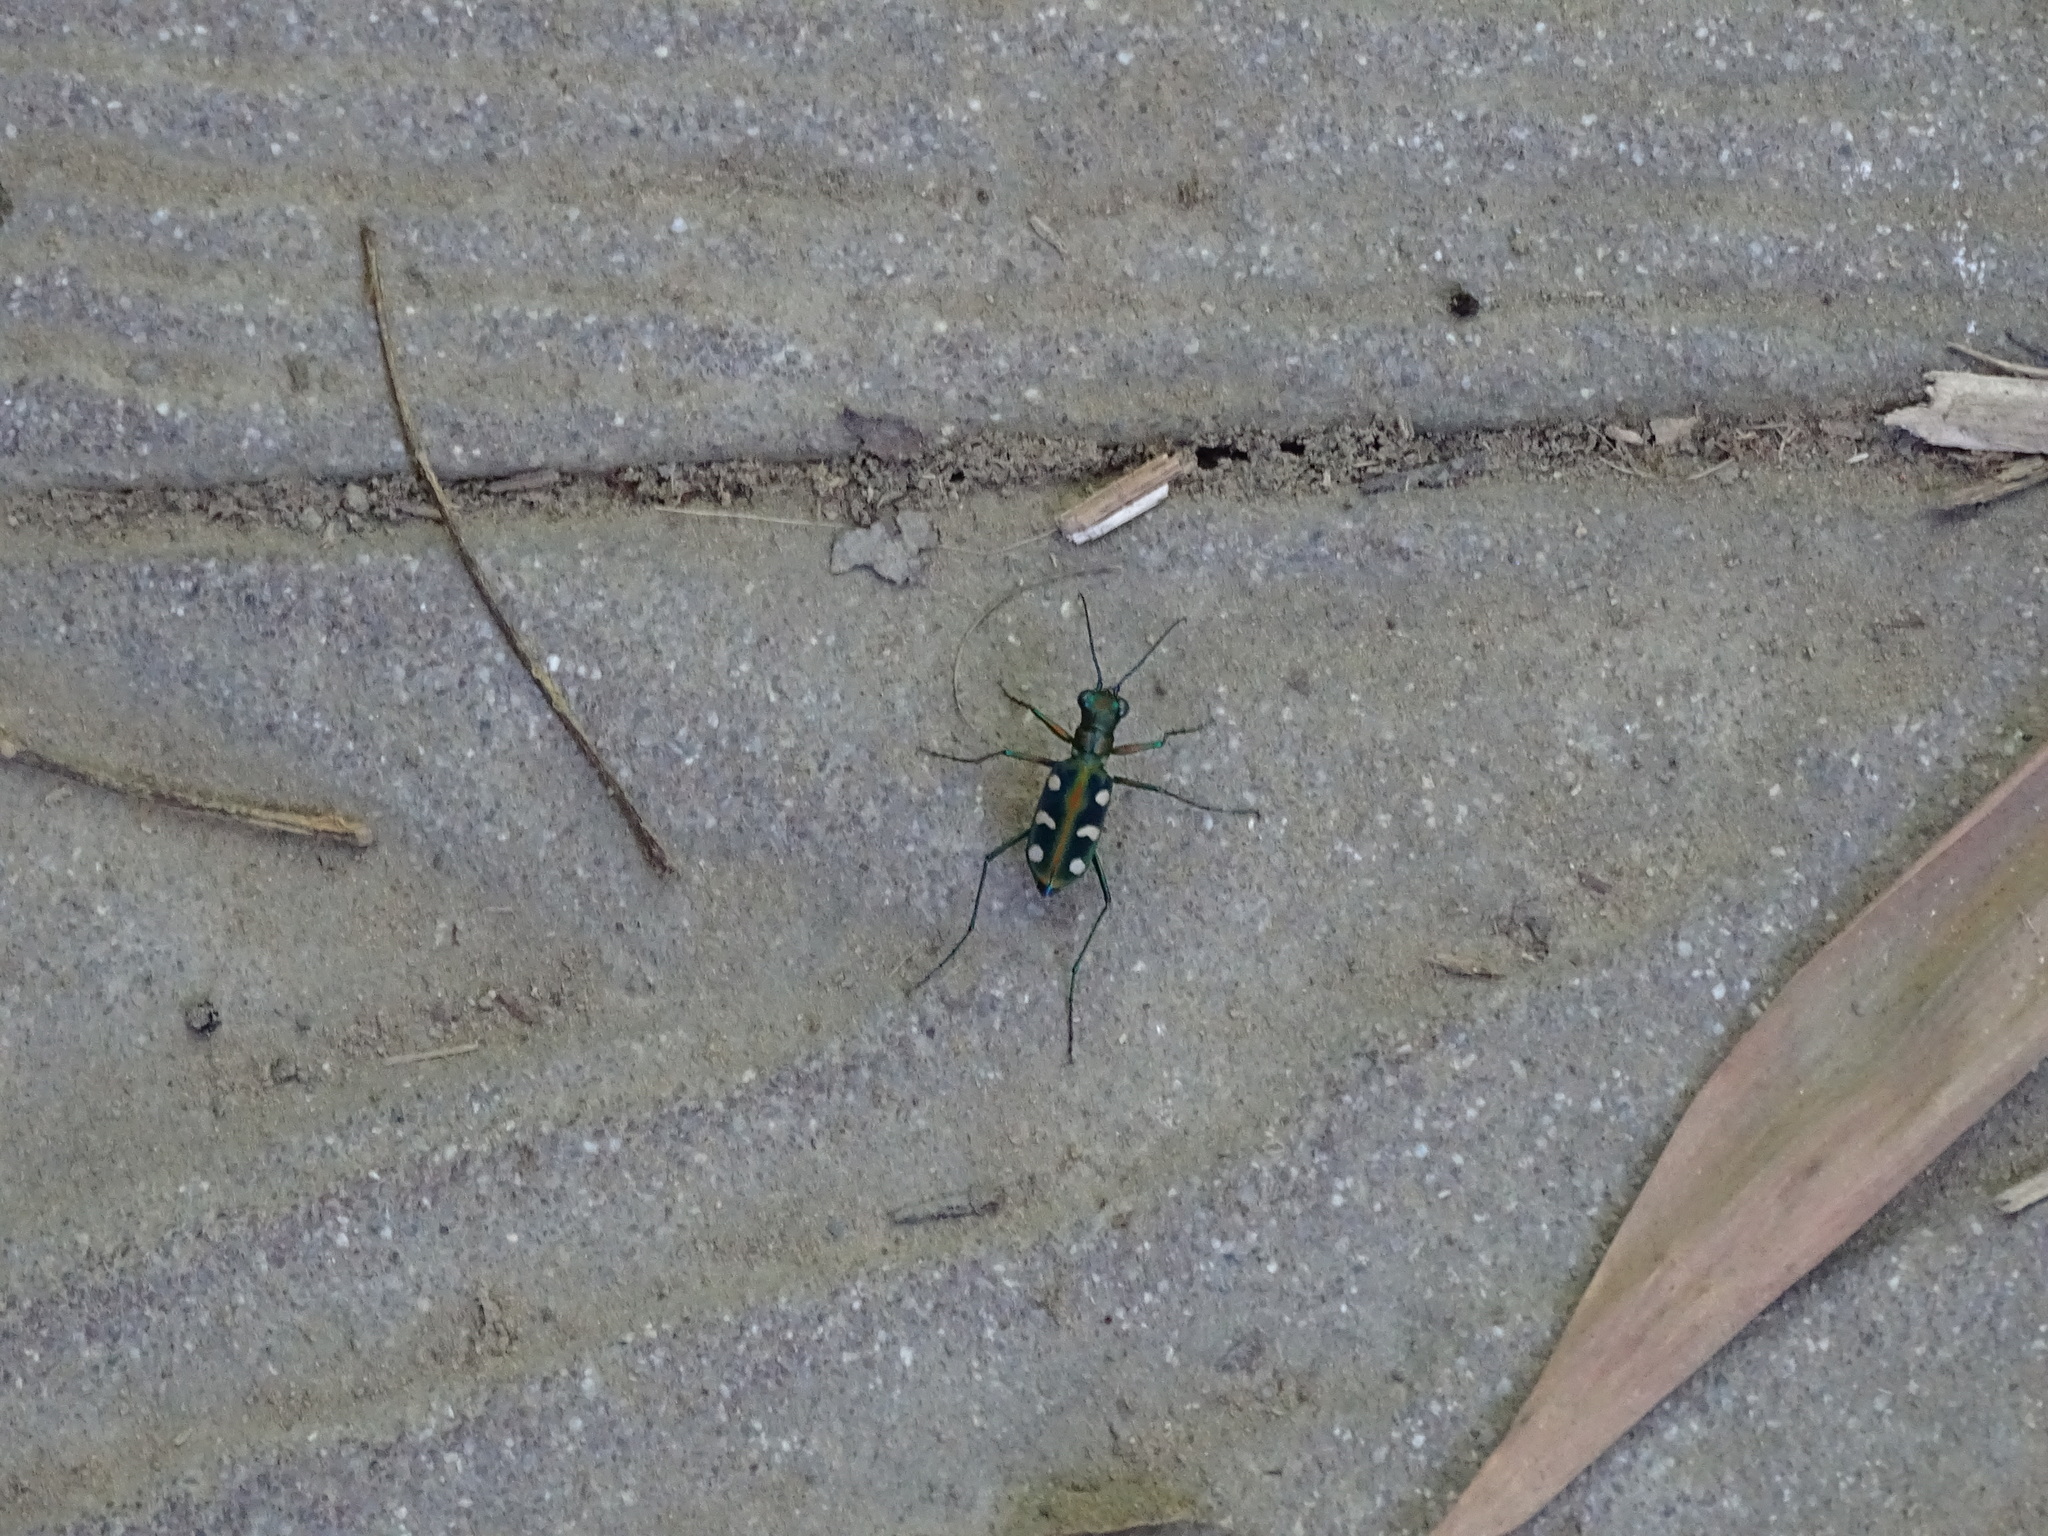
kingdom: Animalia
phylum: Arthropoda
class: Insecta
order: Coleoptera
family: Carabidae
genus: Cicindela
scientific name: Cicindela batesi
